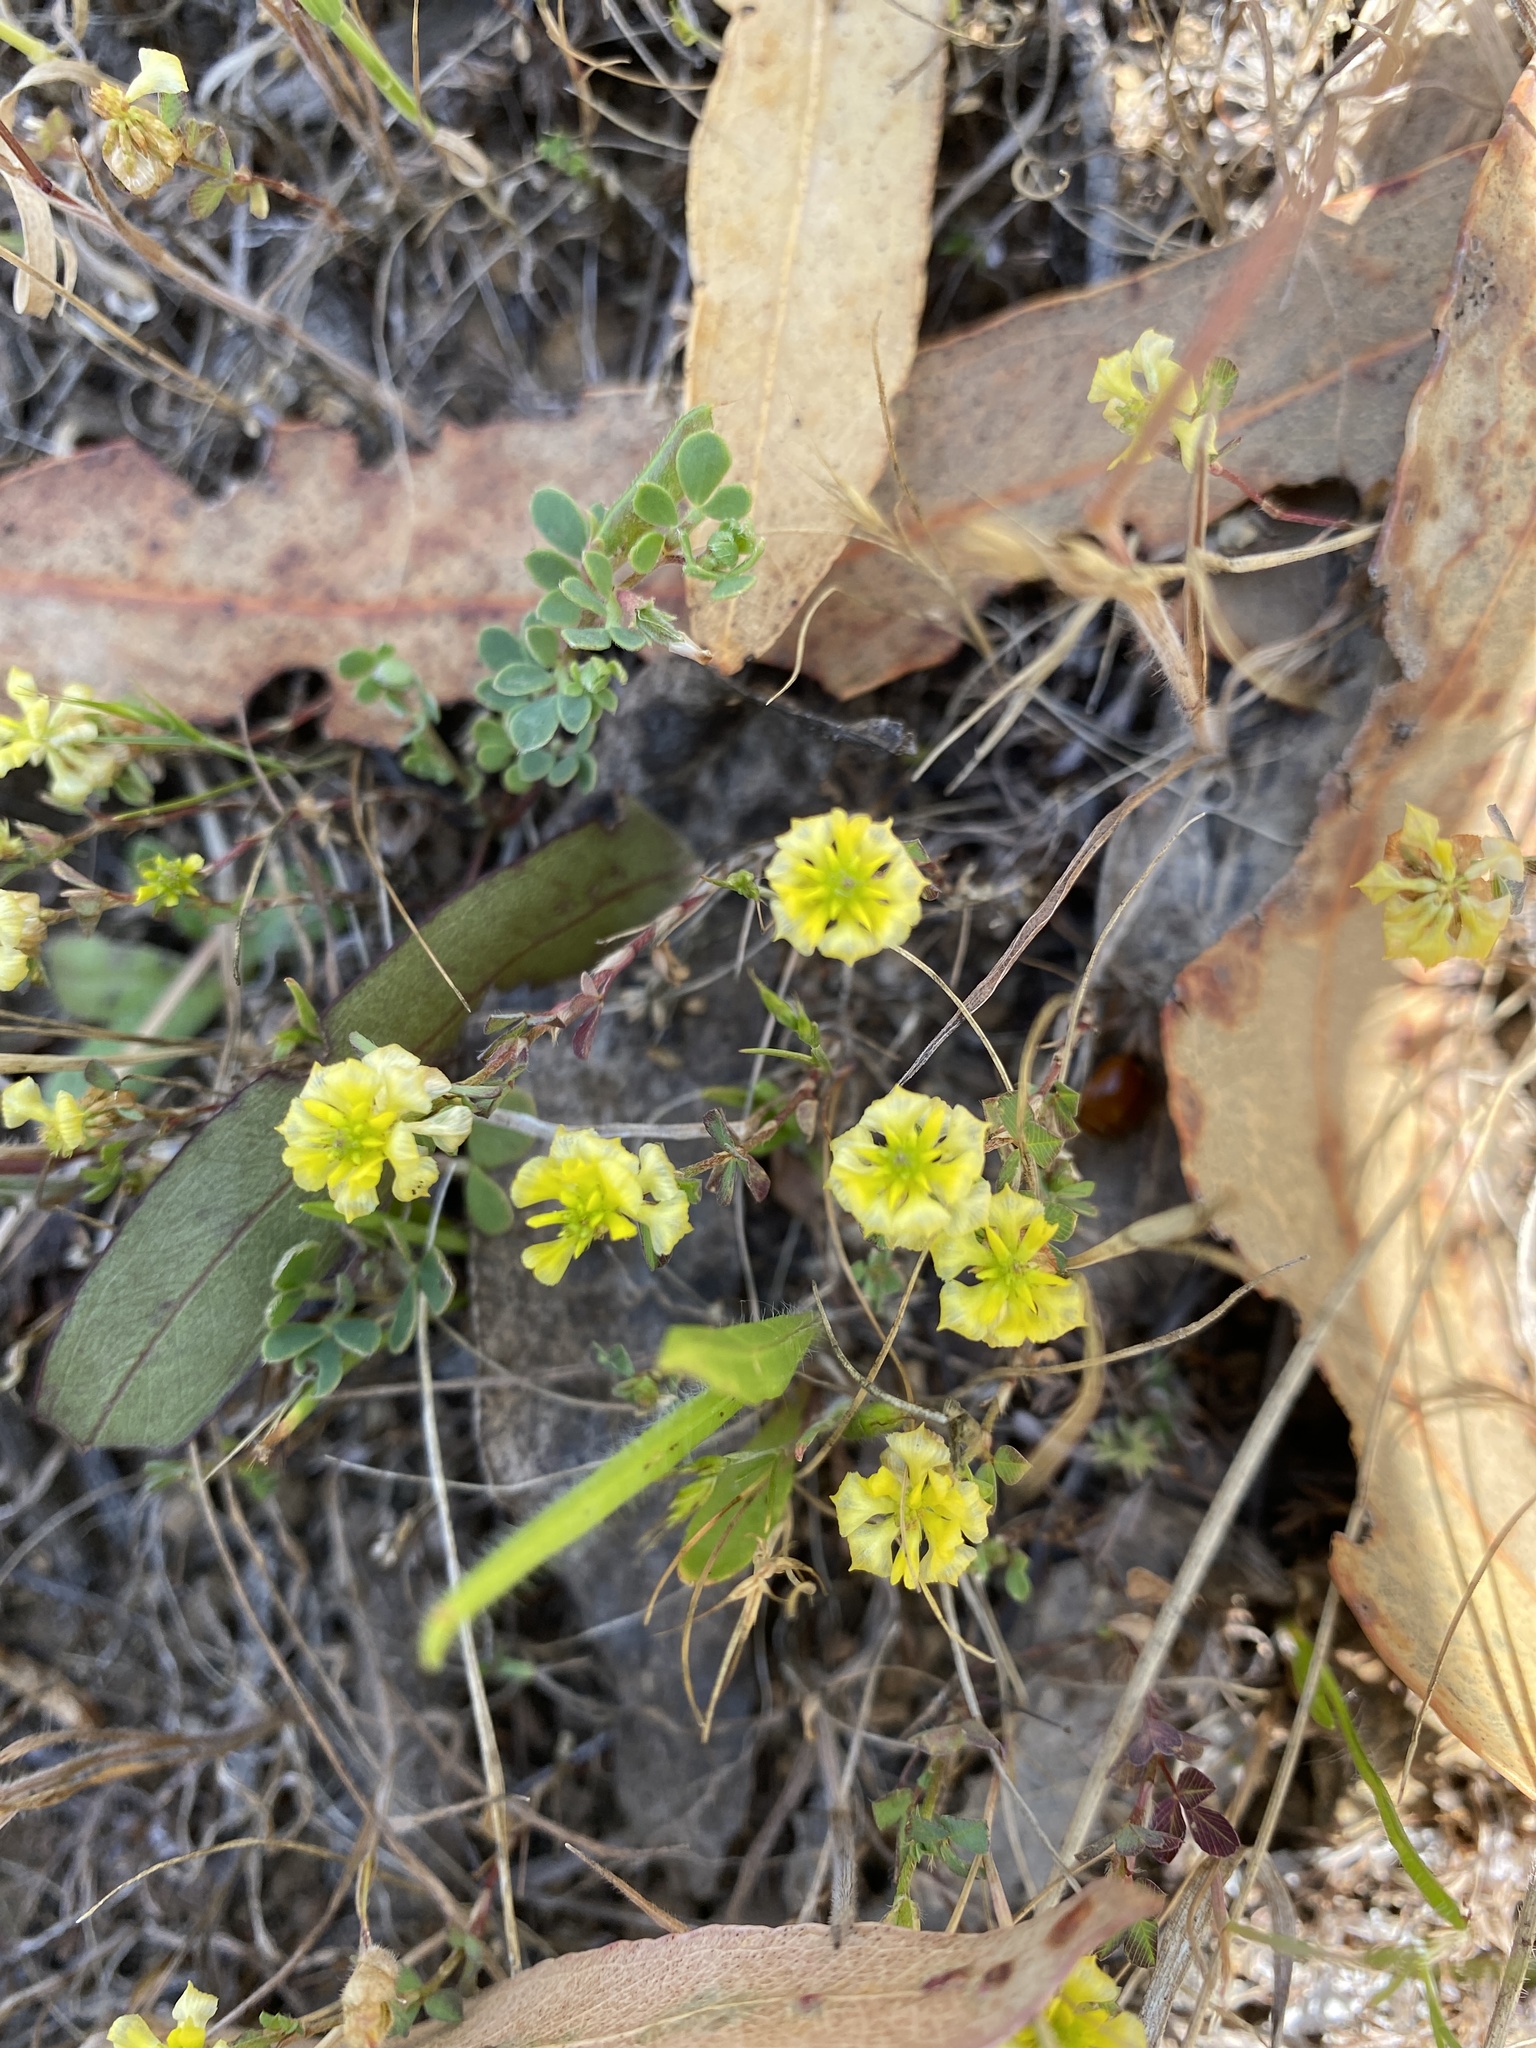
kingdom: Plantae
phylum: Tracheophyta
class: Magnoliopsida
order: Fabales
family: Fabaceae
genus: Trifolium
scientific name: Trifolium campestre
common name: Field clover
